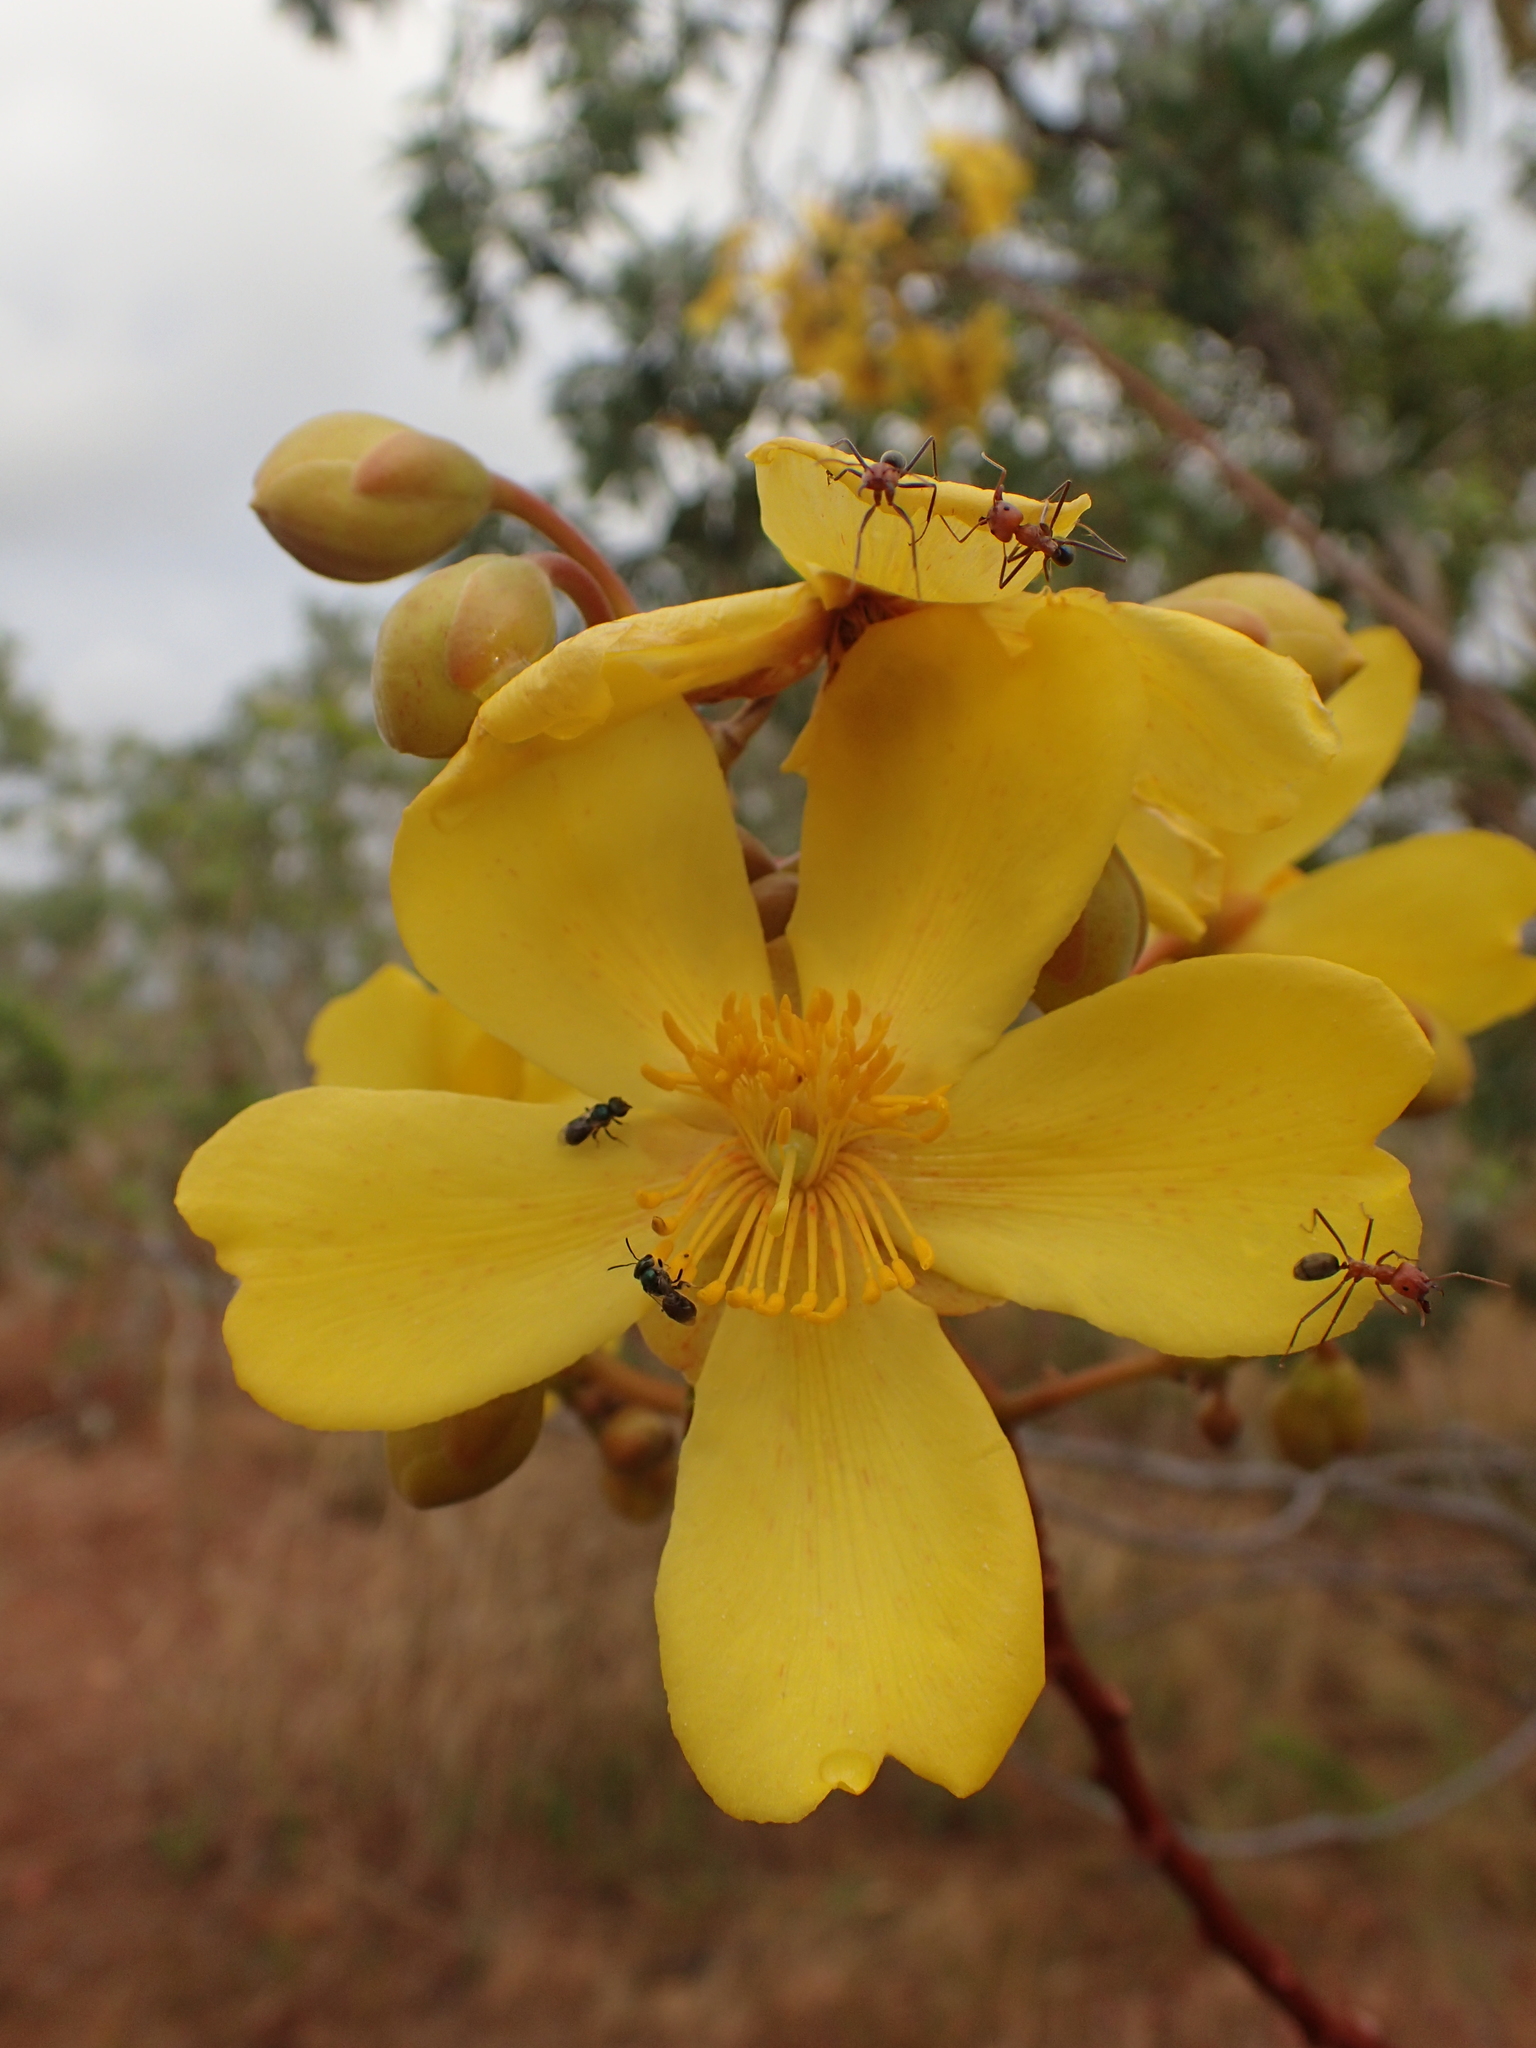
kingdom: Plantae
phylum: Tracheophyta
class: Magnoliopsida
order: Malvales
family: Cochlospermaceae
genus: Cochlospermum
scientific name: Cochlospermum fraseri
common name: Kapokbush
